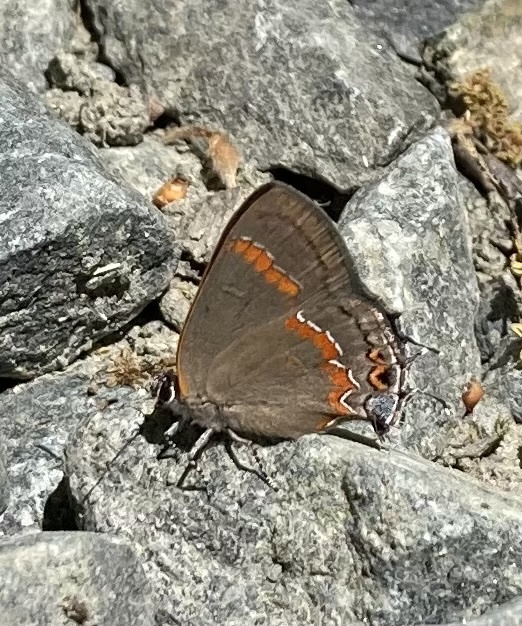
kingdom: Animalia
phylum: Arthropoda
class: Insecta
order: Lepidoptera
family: Lycaenidae
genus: Calycopis
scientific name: Calycopis cecrops
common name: Red-banded hairstreak
